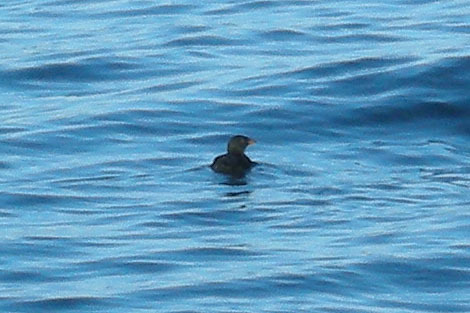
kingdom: Animalia
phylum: Chordata
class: Aves
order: Charadriiformes
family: Alcidae
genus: Cerorhinca
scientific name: Cerorhinca monocerata
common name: Rhinoceros auklet
